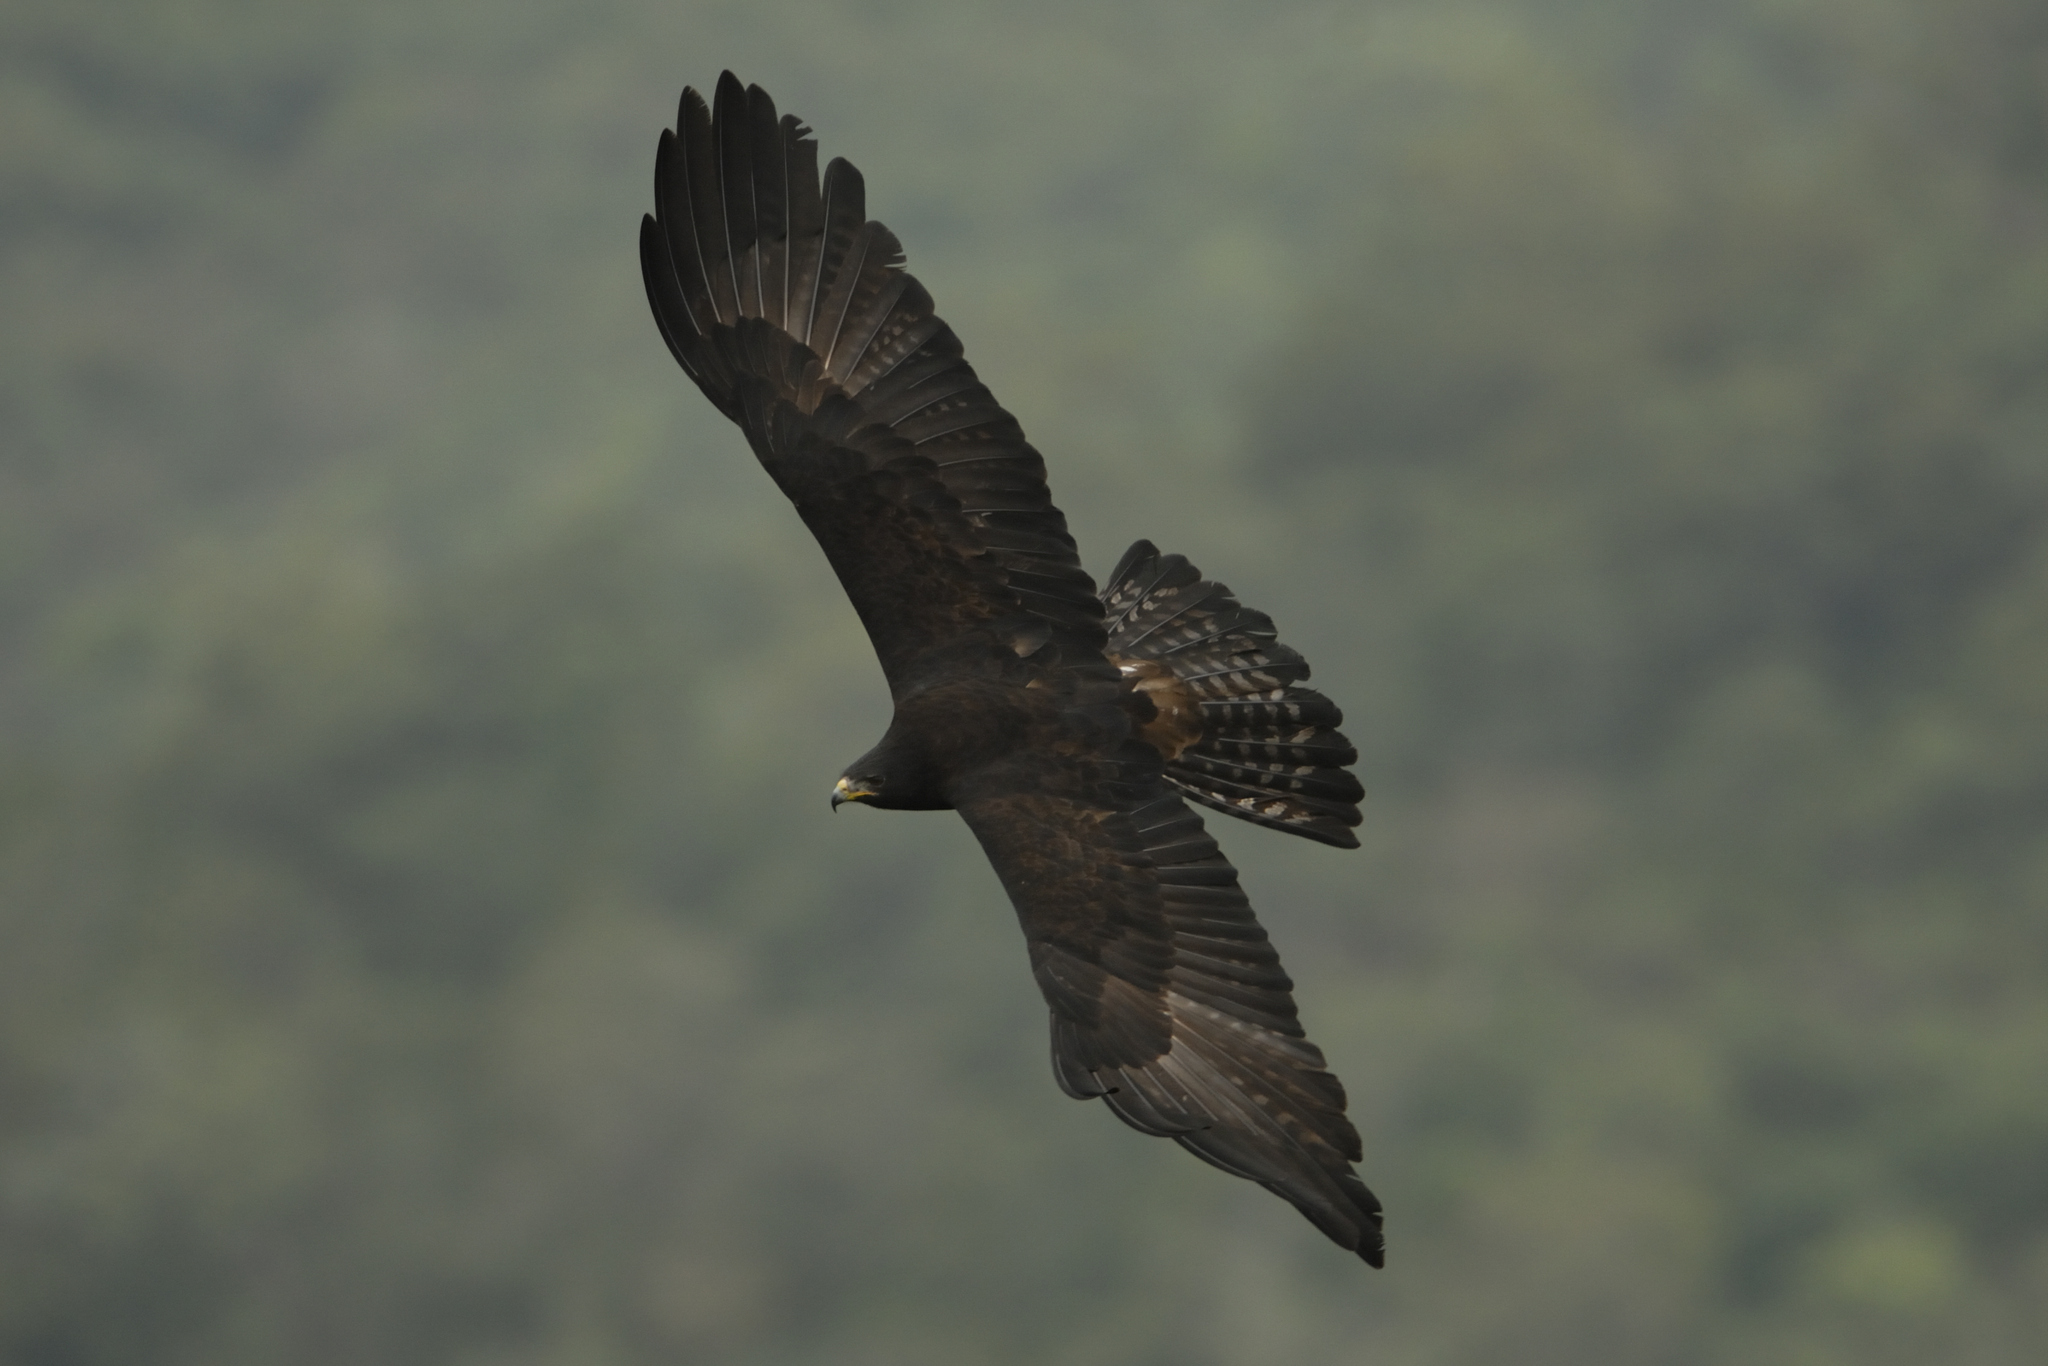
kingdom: Animalia
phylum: Chordata
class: Aves
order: Accipitriformes
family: Accipitridae
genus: Ictinaetus
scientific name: Ictinaetus malayensis
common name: Black eagle
